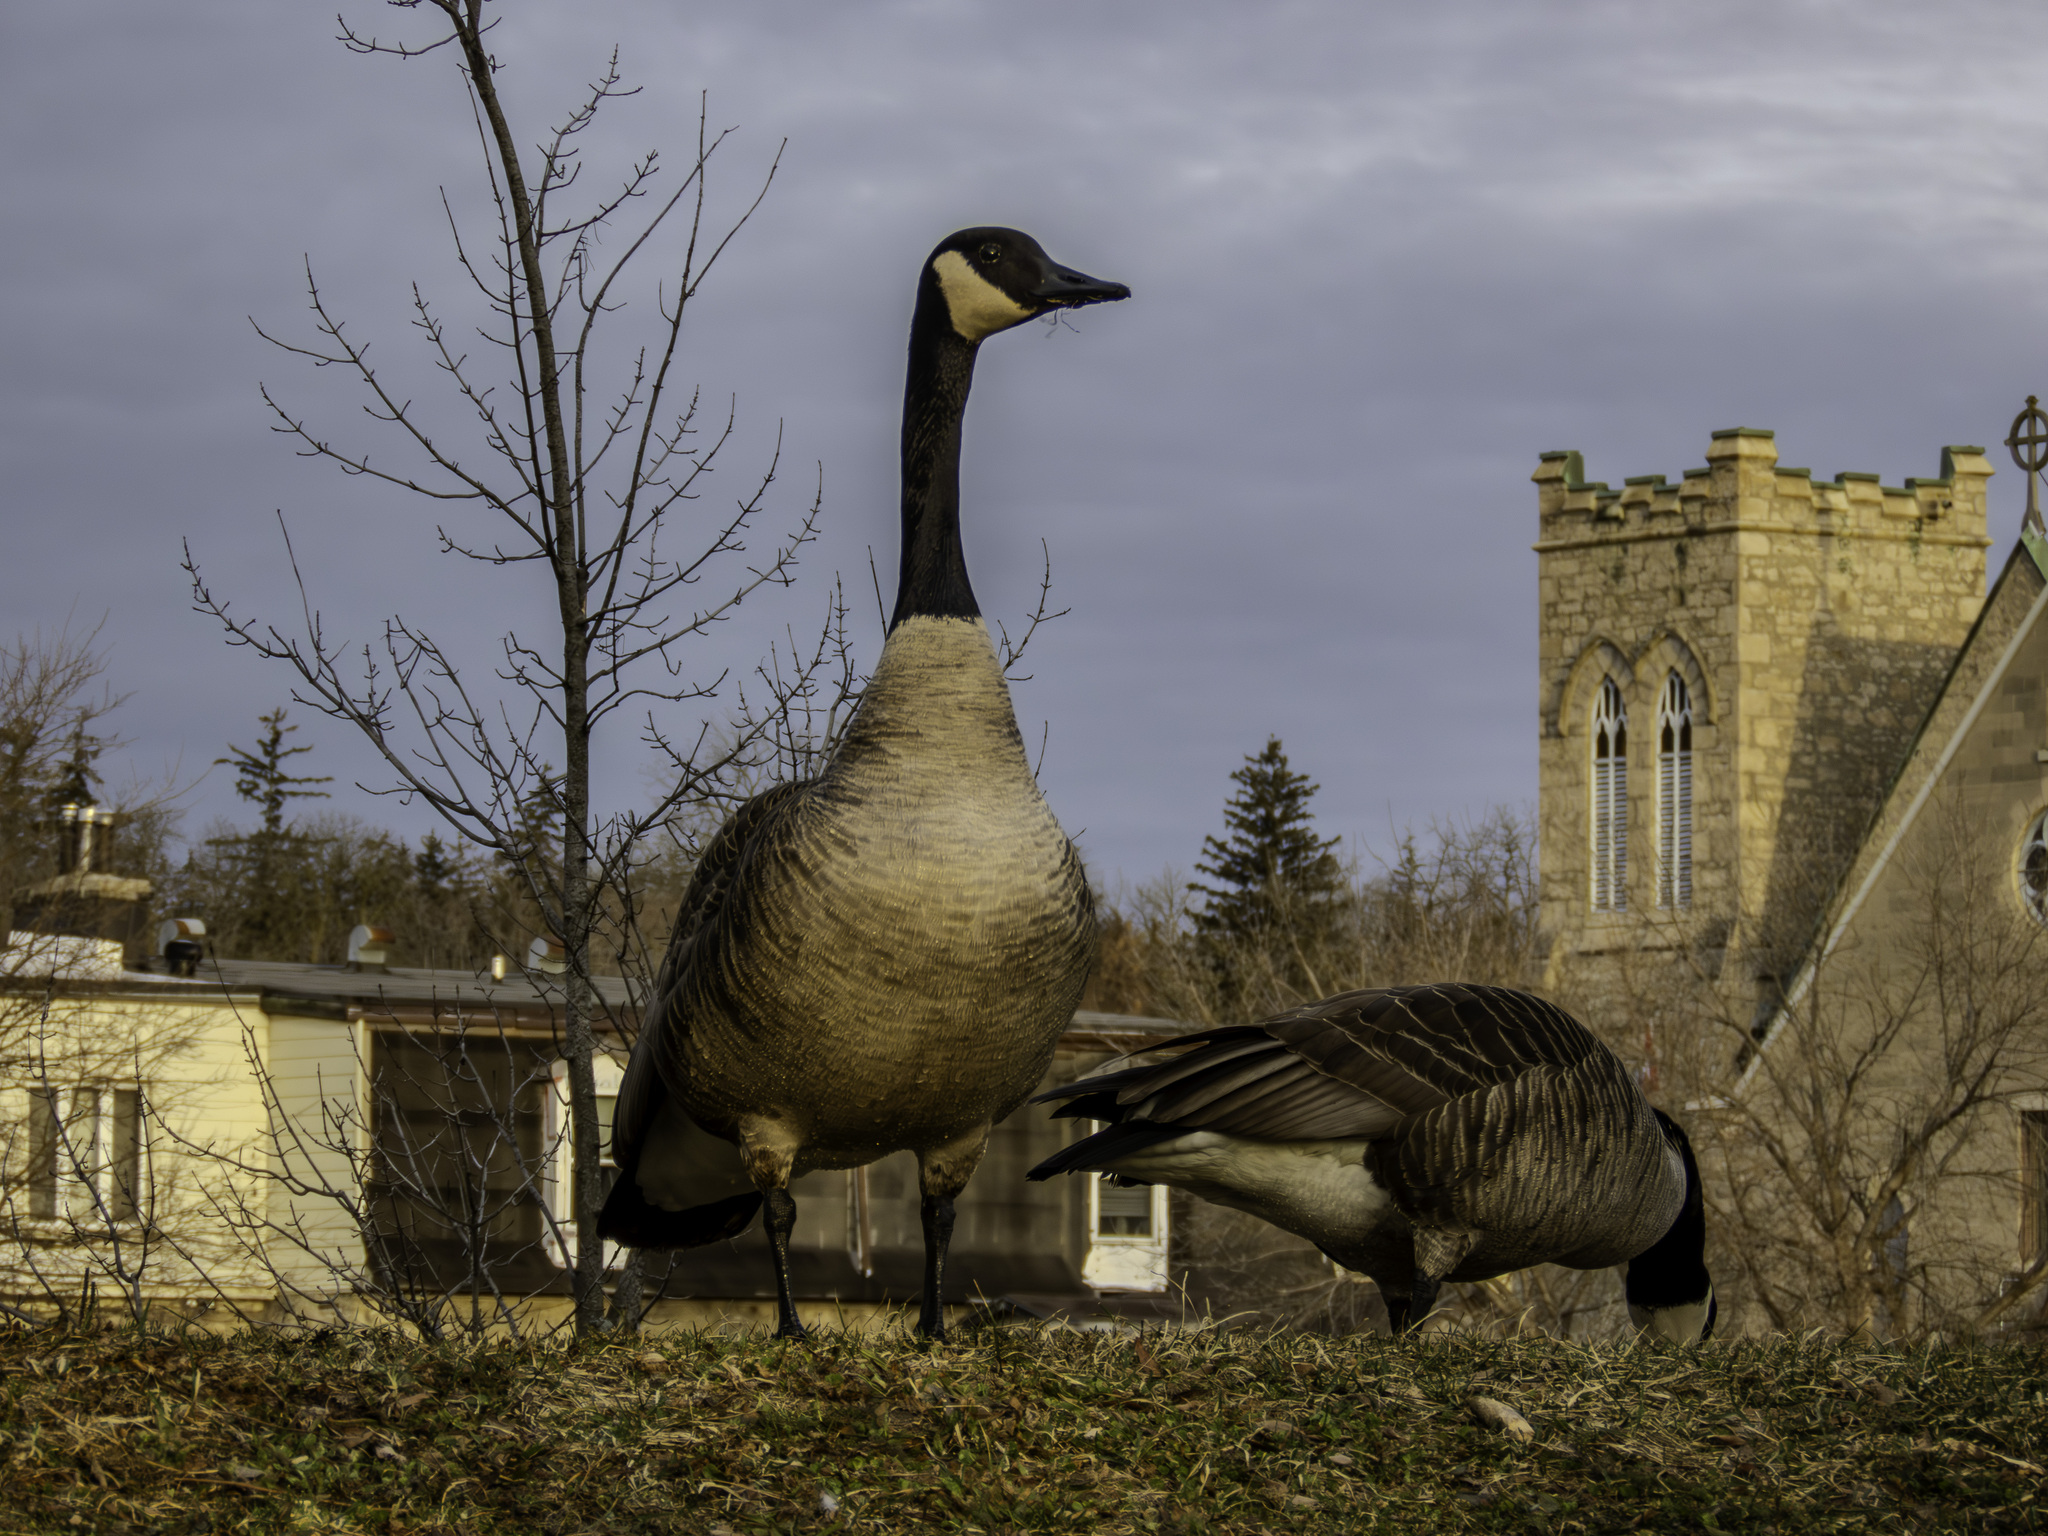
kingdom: Animalia
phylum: Chordata
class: Aves
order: Anseriformes
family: Anatidae
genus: Branta
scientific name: Branta canadensis
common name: Canada goose
